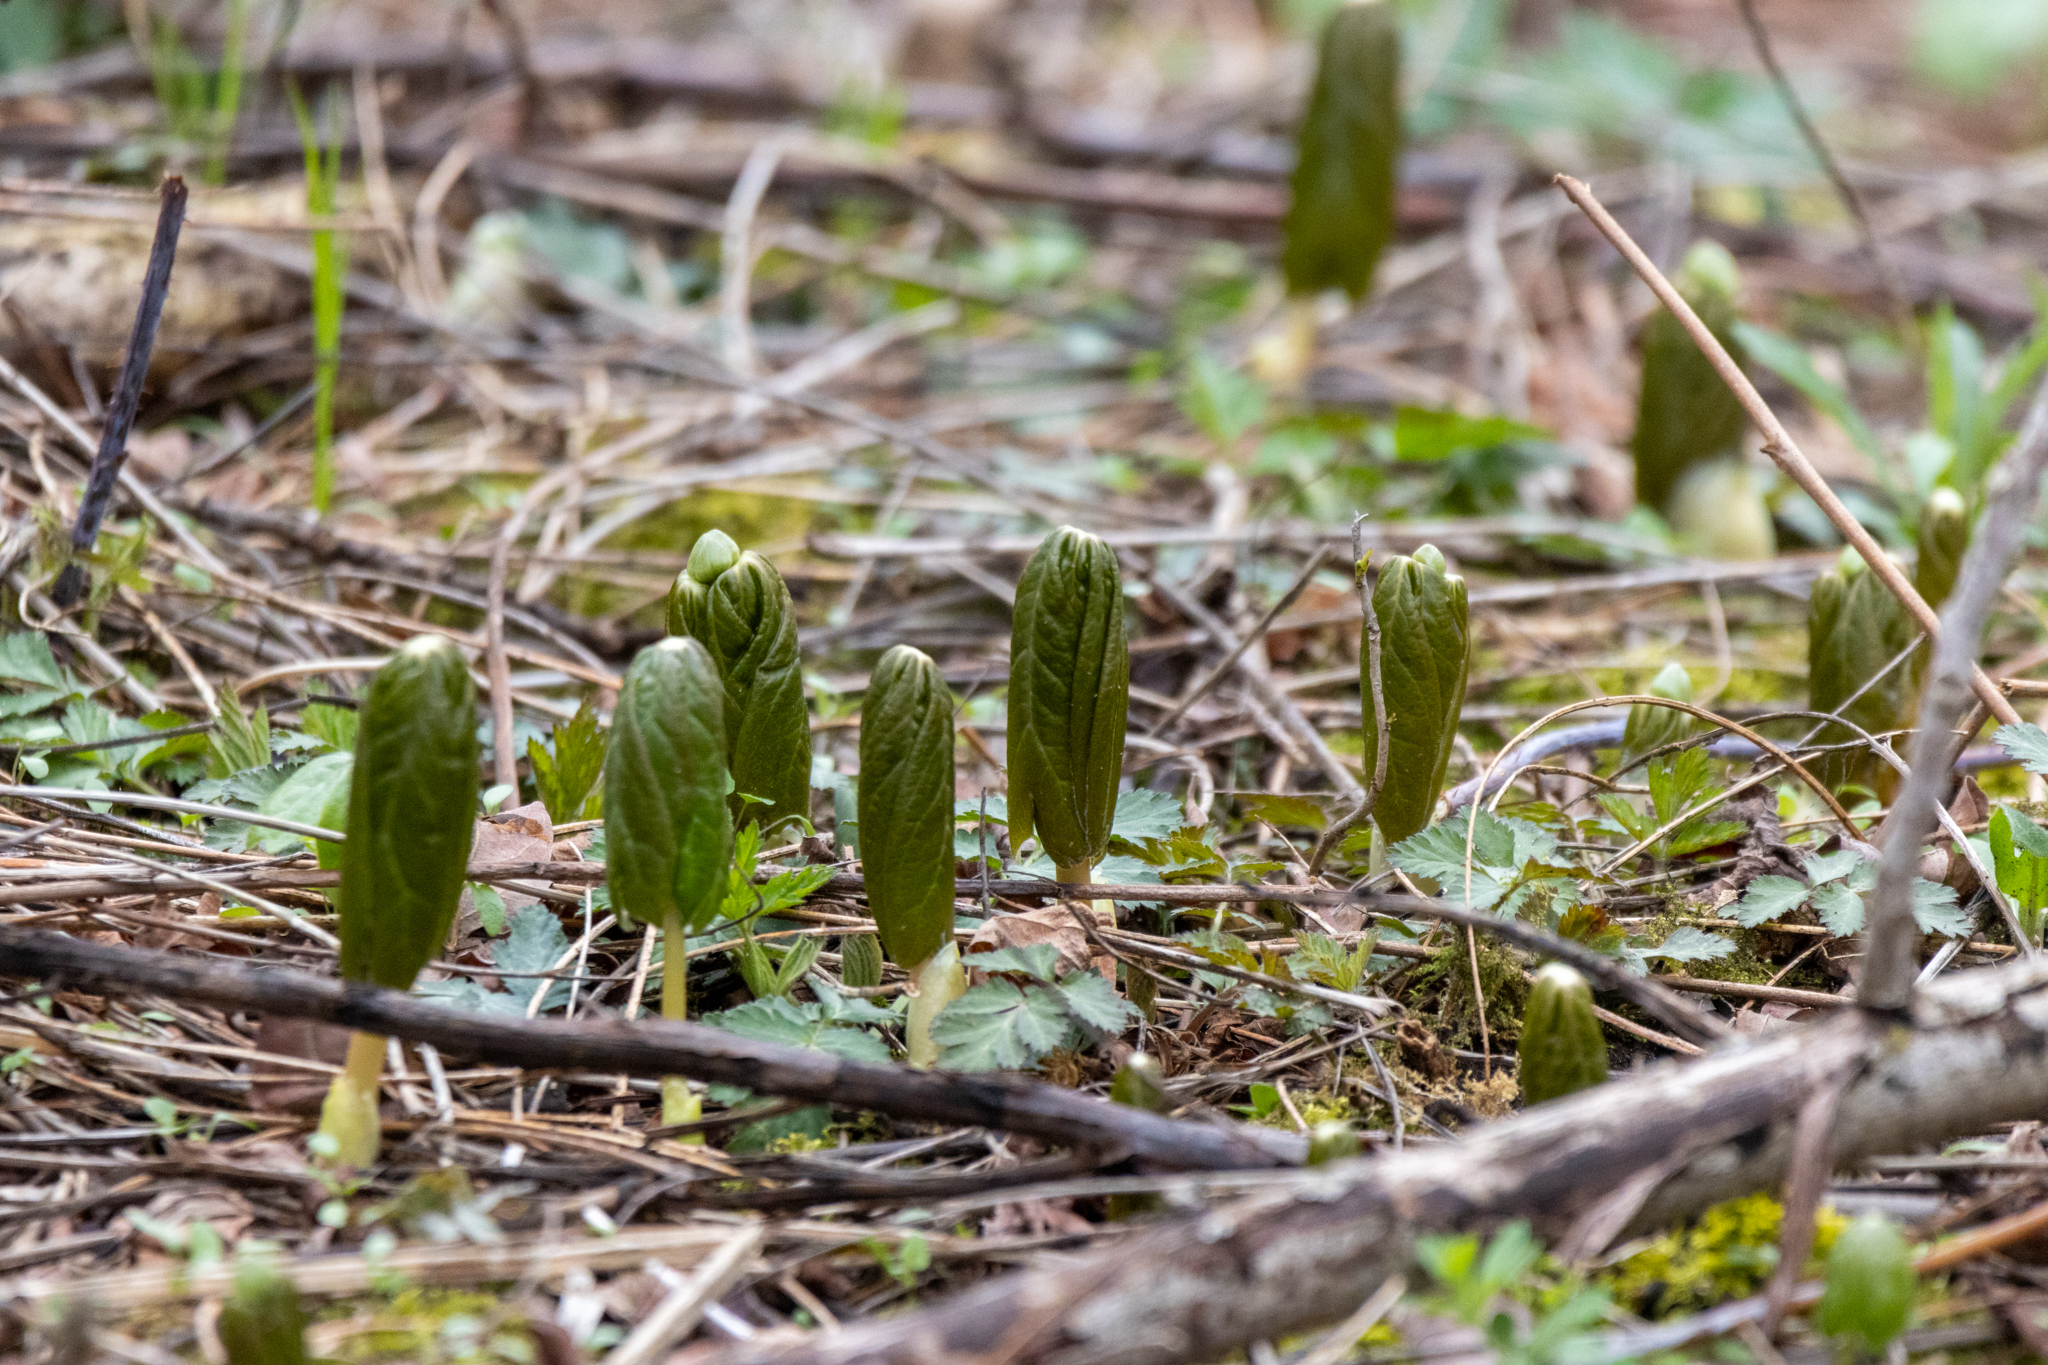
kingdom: Plantae
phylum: Tracheophyta
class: Magnoliopsida
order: Ranunculales
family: Berberidaceae
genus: Podophyllum
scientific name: Podophyllum peltatum
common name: Wild mandrake
